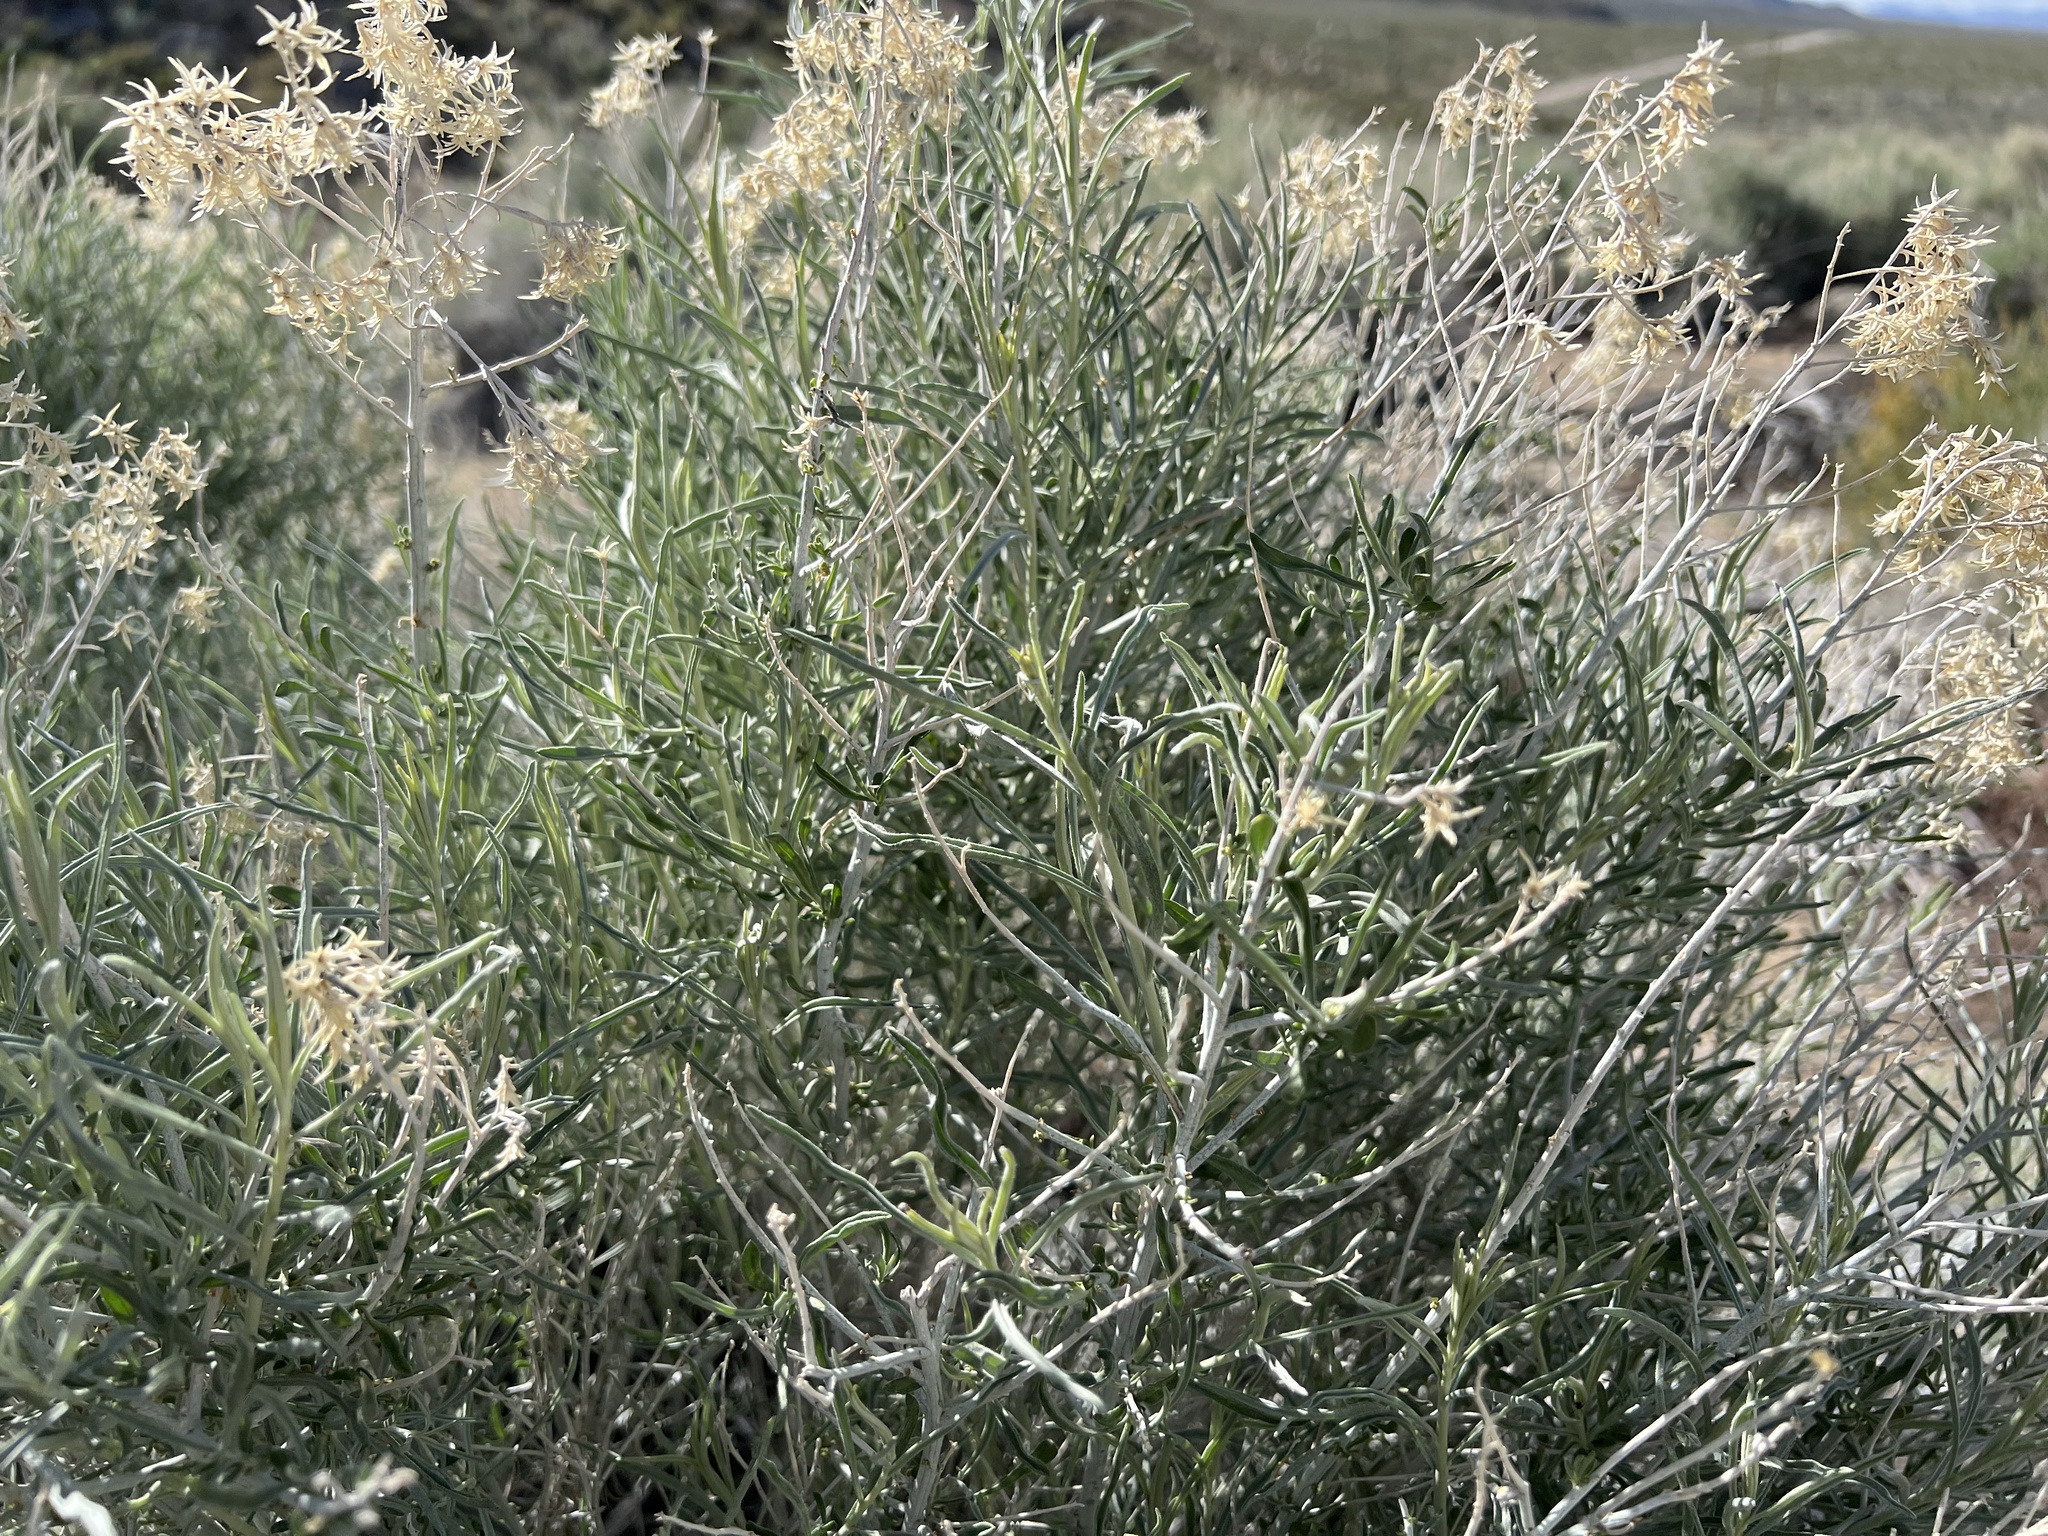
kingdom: Plantae
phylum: Tracheophyta
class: Magnoliopsida
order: Asterales
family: Asteraceae
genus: Ericameria
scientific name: Ericameria nauseosa
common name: Rubber rabbitbrush
